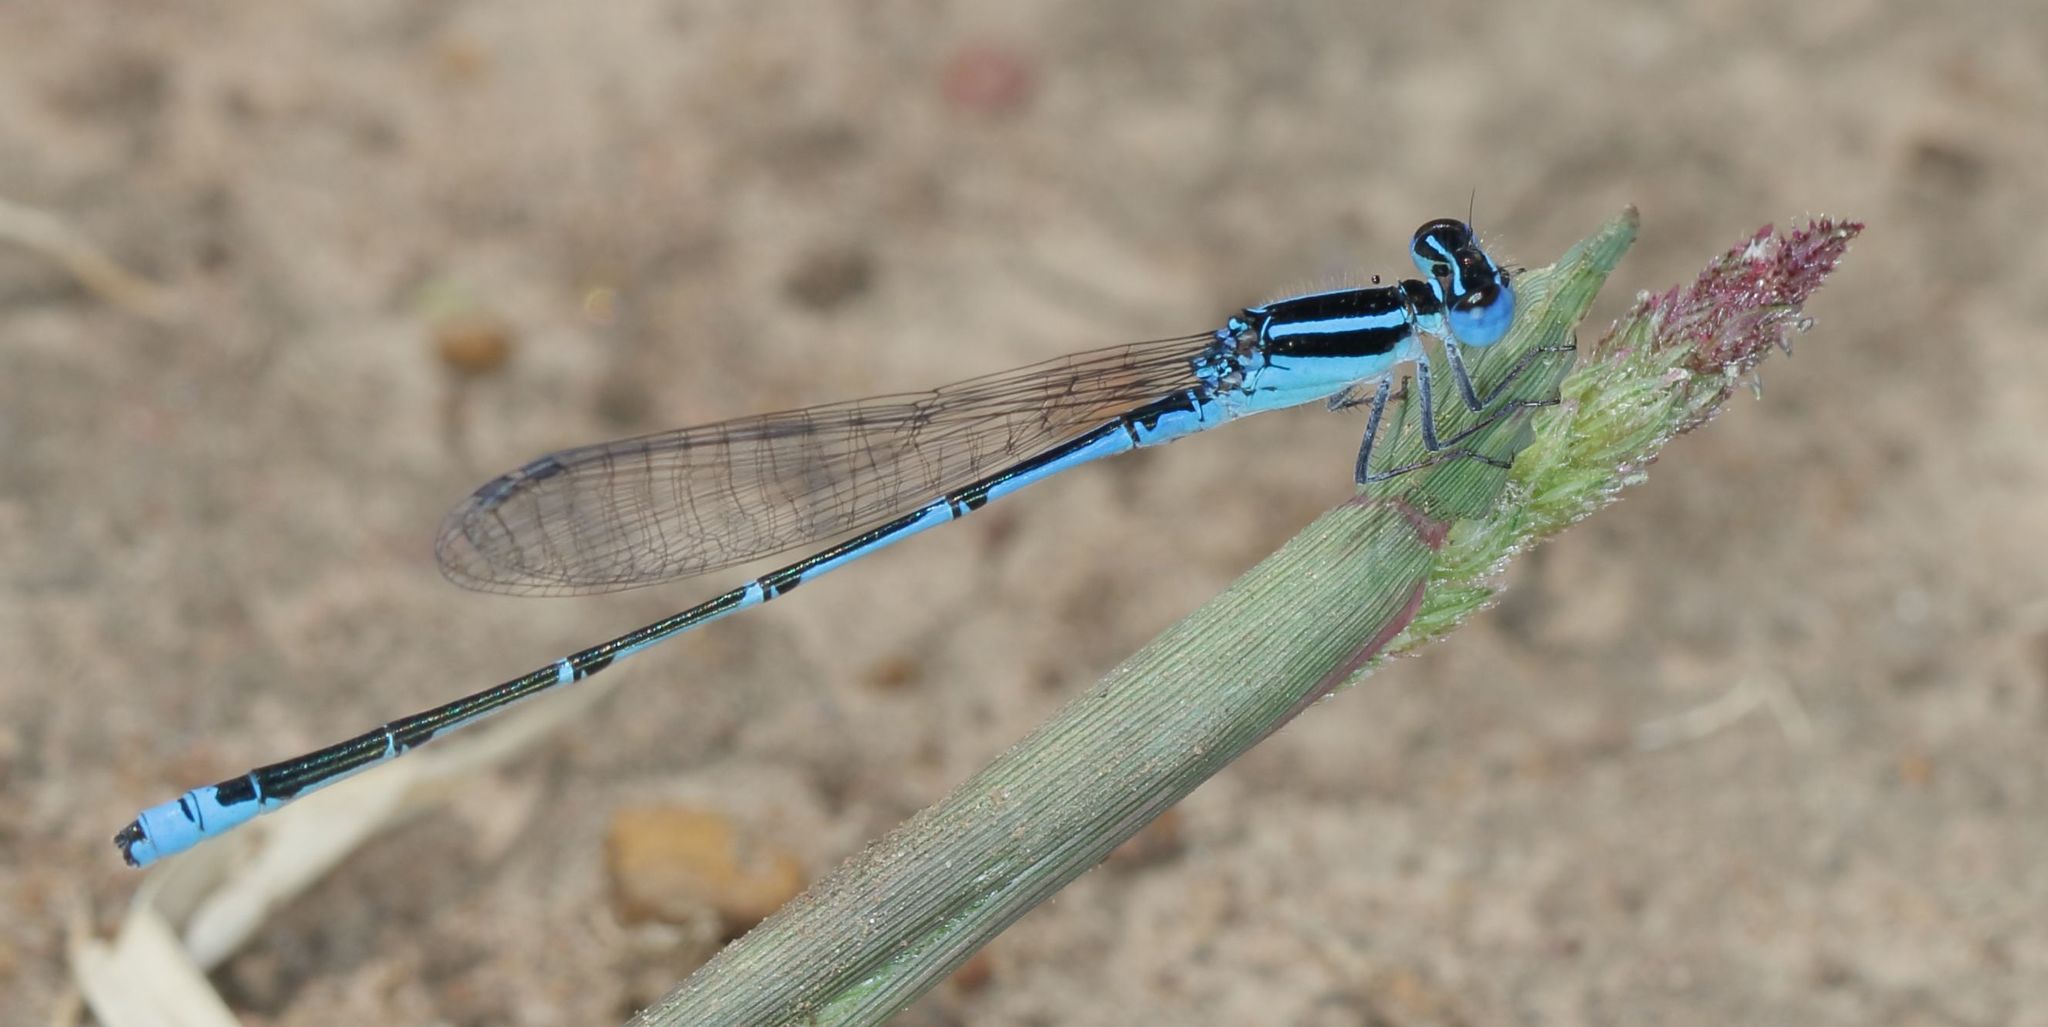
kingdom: Animalia
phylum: Arthropoda
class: Insecta
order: Odonata
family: Coenagrionidae
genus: Azuragrion
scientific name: Azuragrion nigridorsum
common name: Sailing azuret
